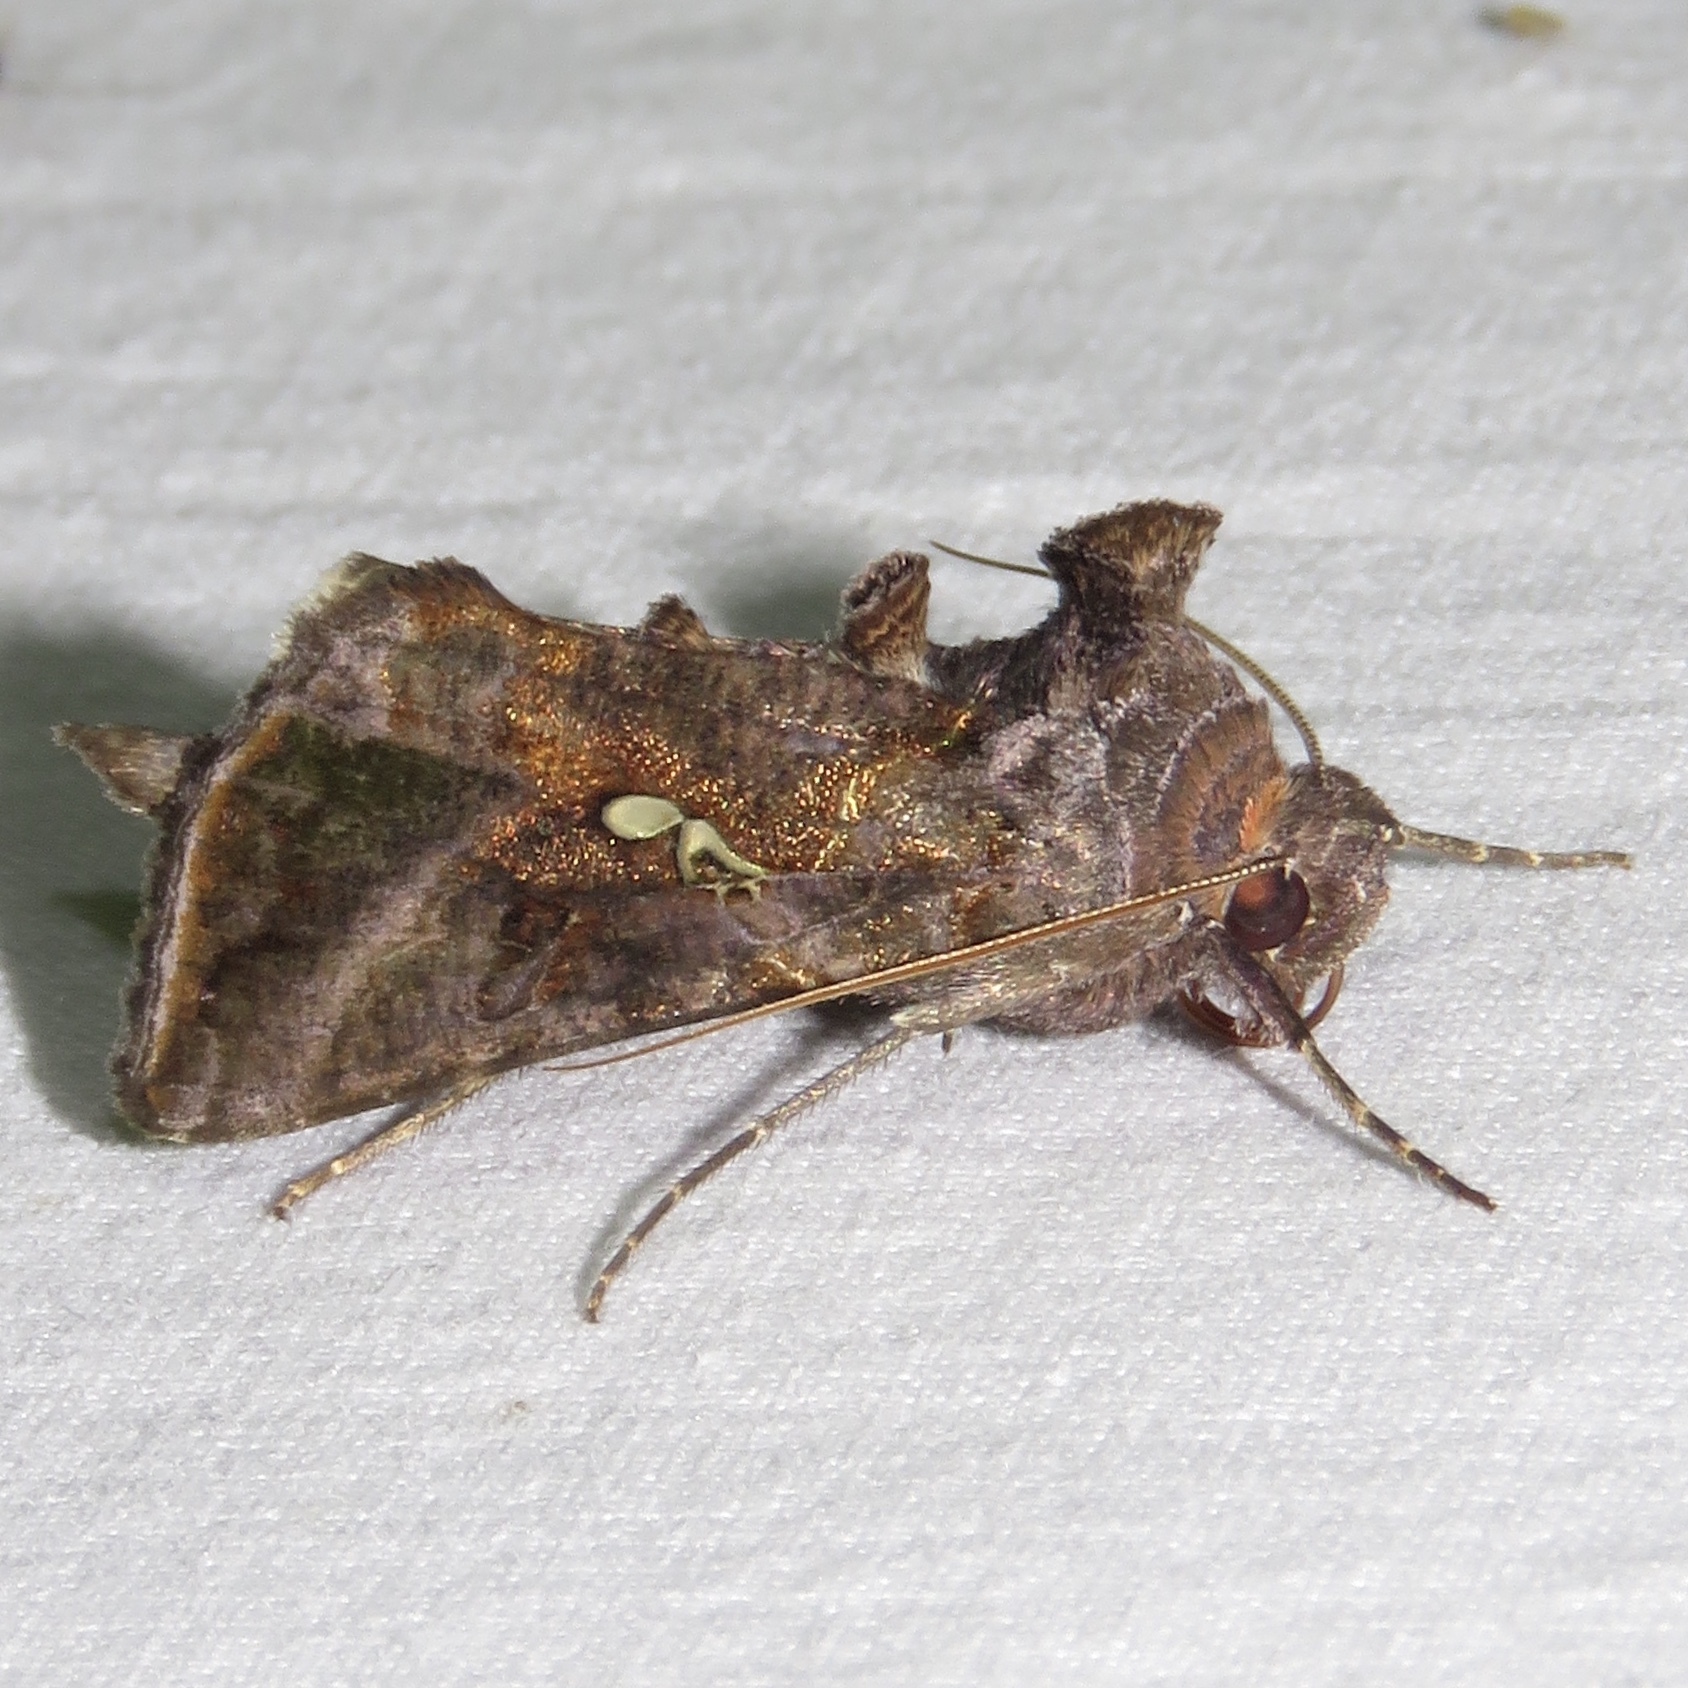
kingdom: Animalia
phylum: Arthropoda
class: Insecta
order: Lepidoptera
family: Noctuidae
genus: Autographa
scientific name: Autographa precationis
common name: Common looper moth
